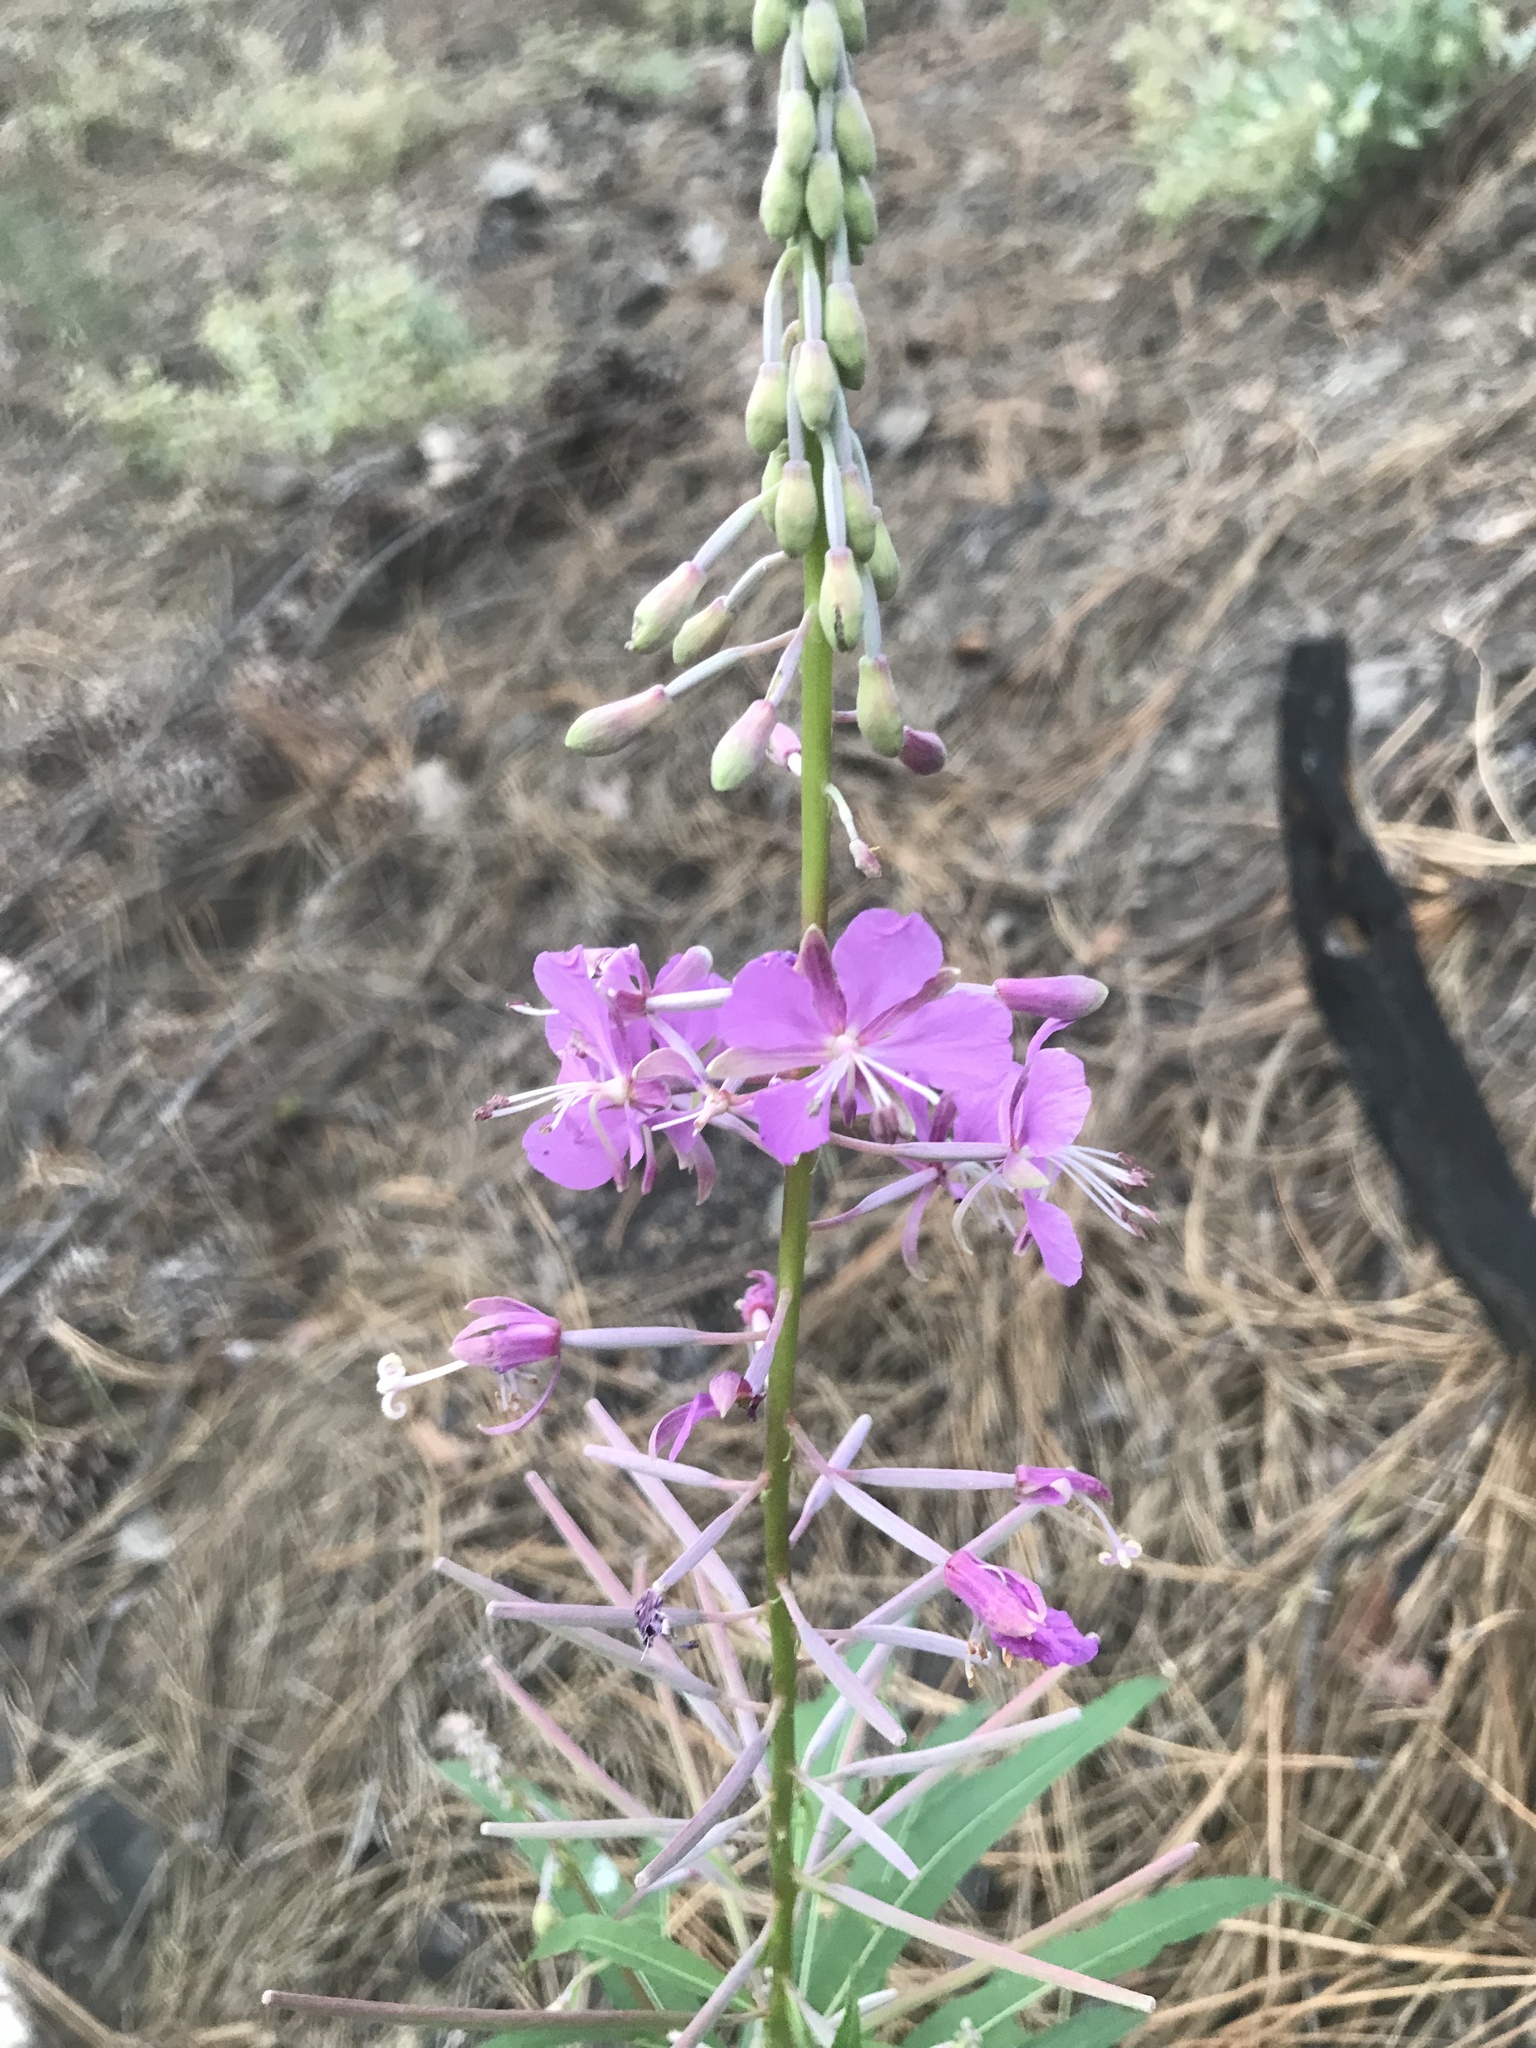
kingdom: Plantae
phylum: Tracheophyta
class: Magnoliopsida
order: Myrtales
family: Onagraceae
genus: Chamaenerion
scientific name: Chamaenerion angustifolium
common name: Fireweed
